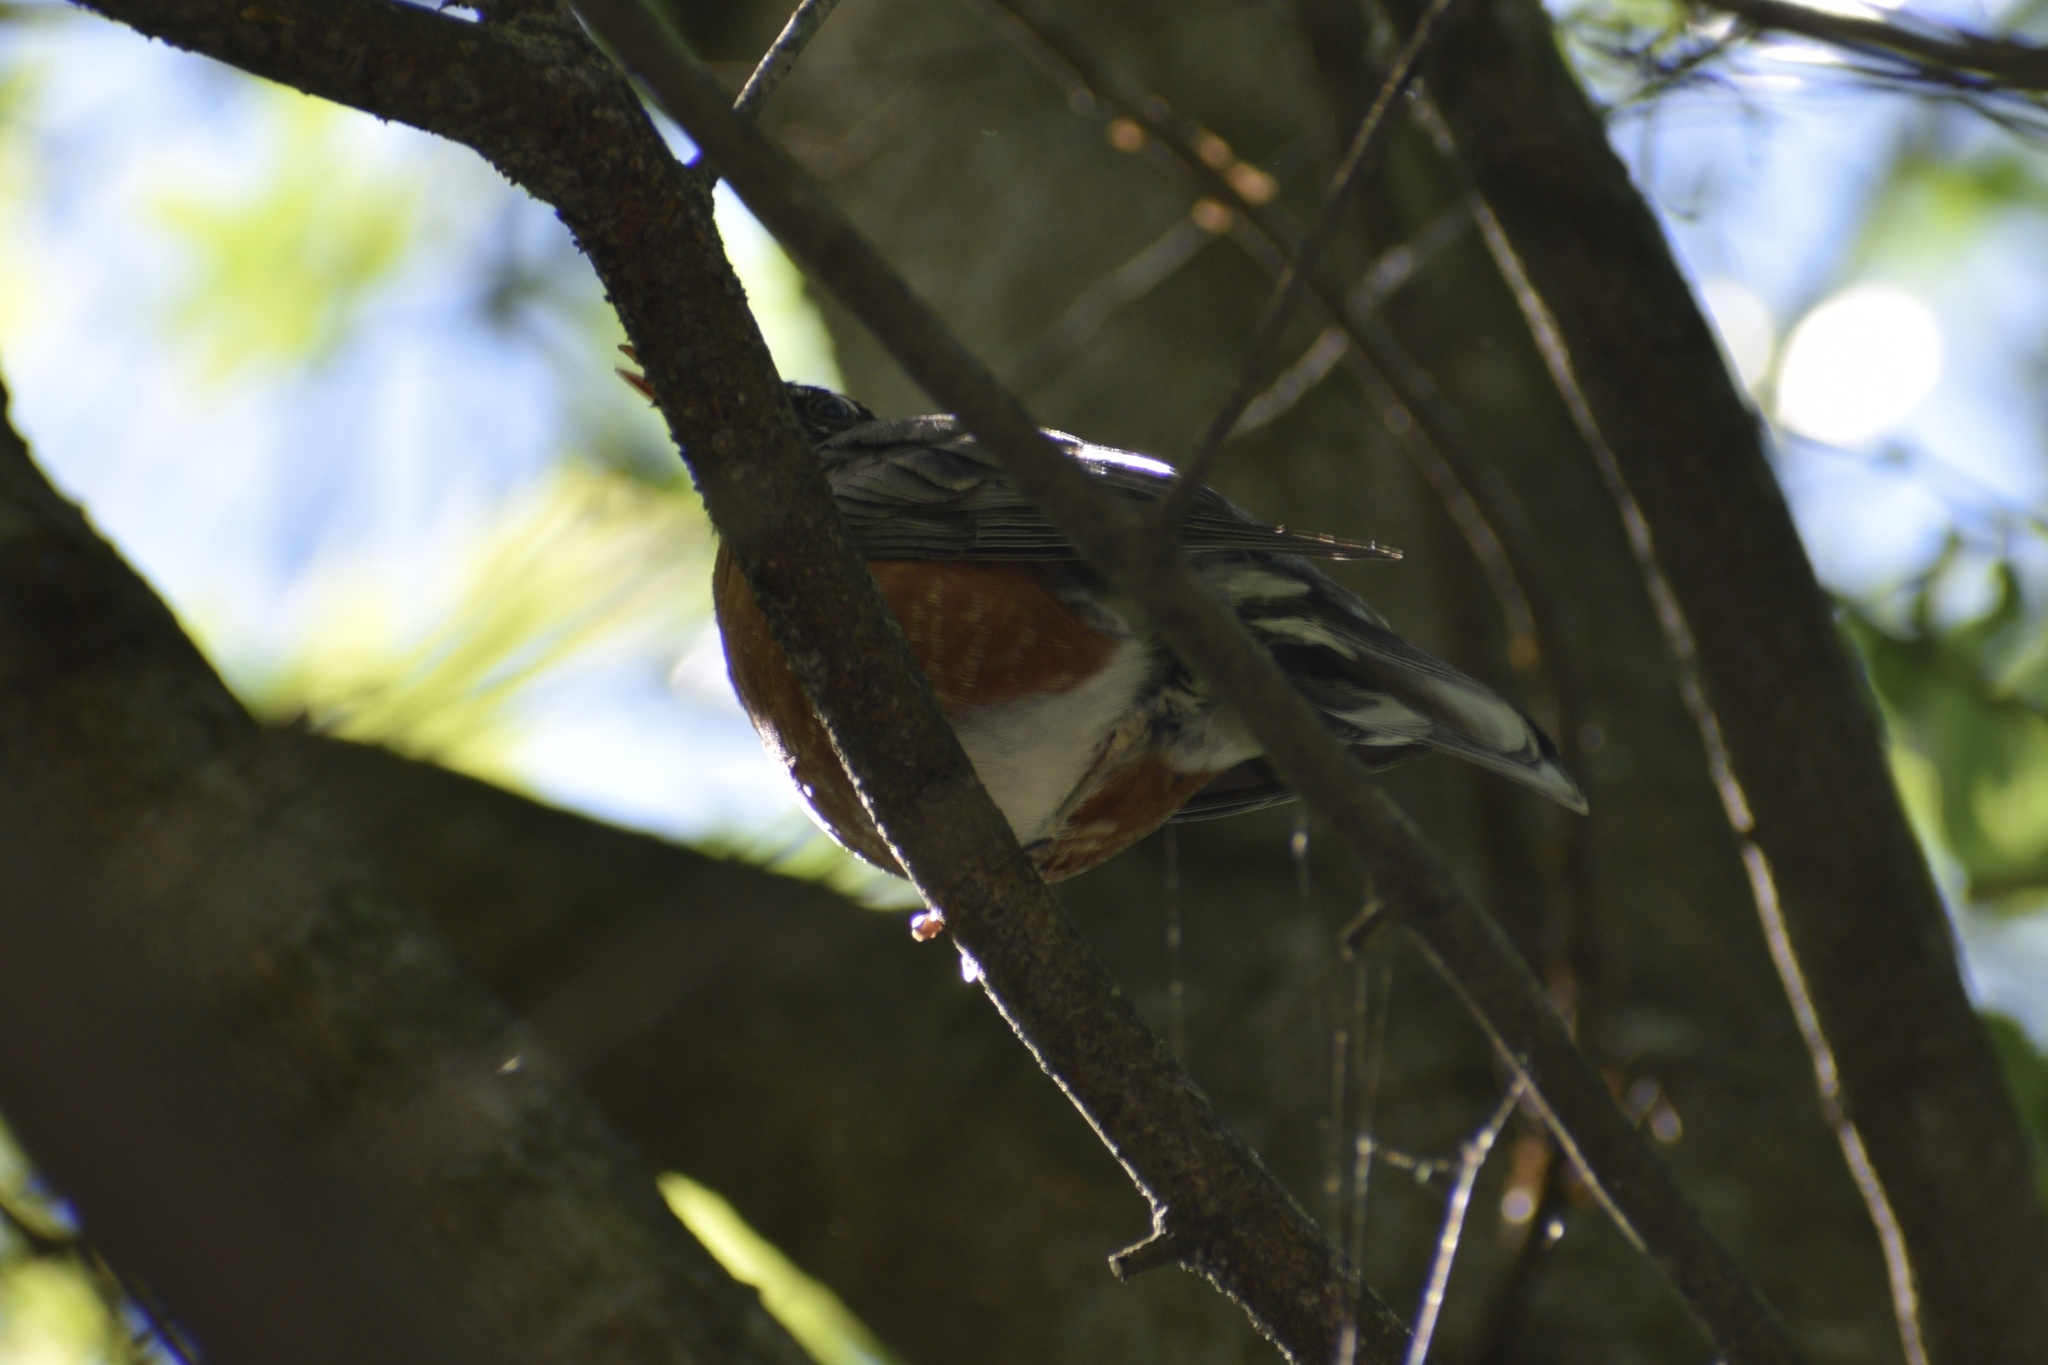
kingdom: Animalia
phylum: Chordata
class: Aves
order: Passeriformes
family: Turdidae
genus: Turdus
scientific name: Turdus migratorius
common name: American robin
